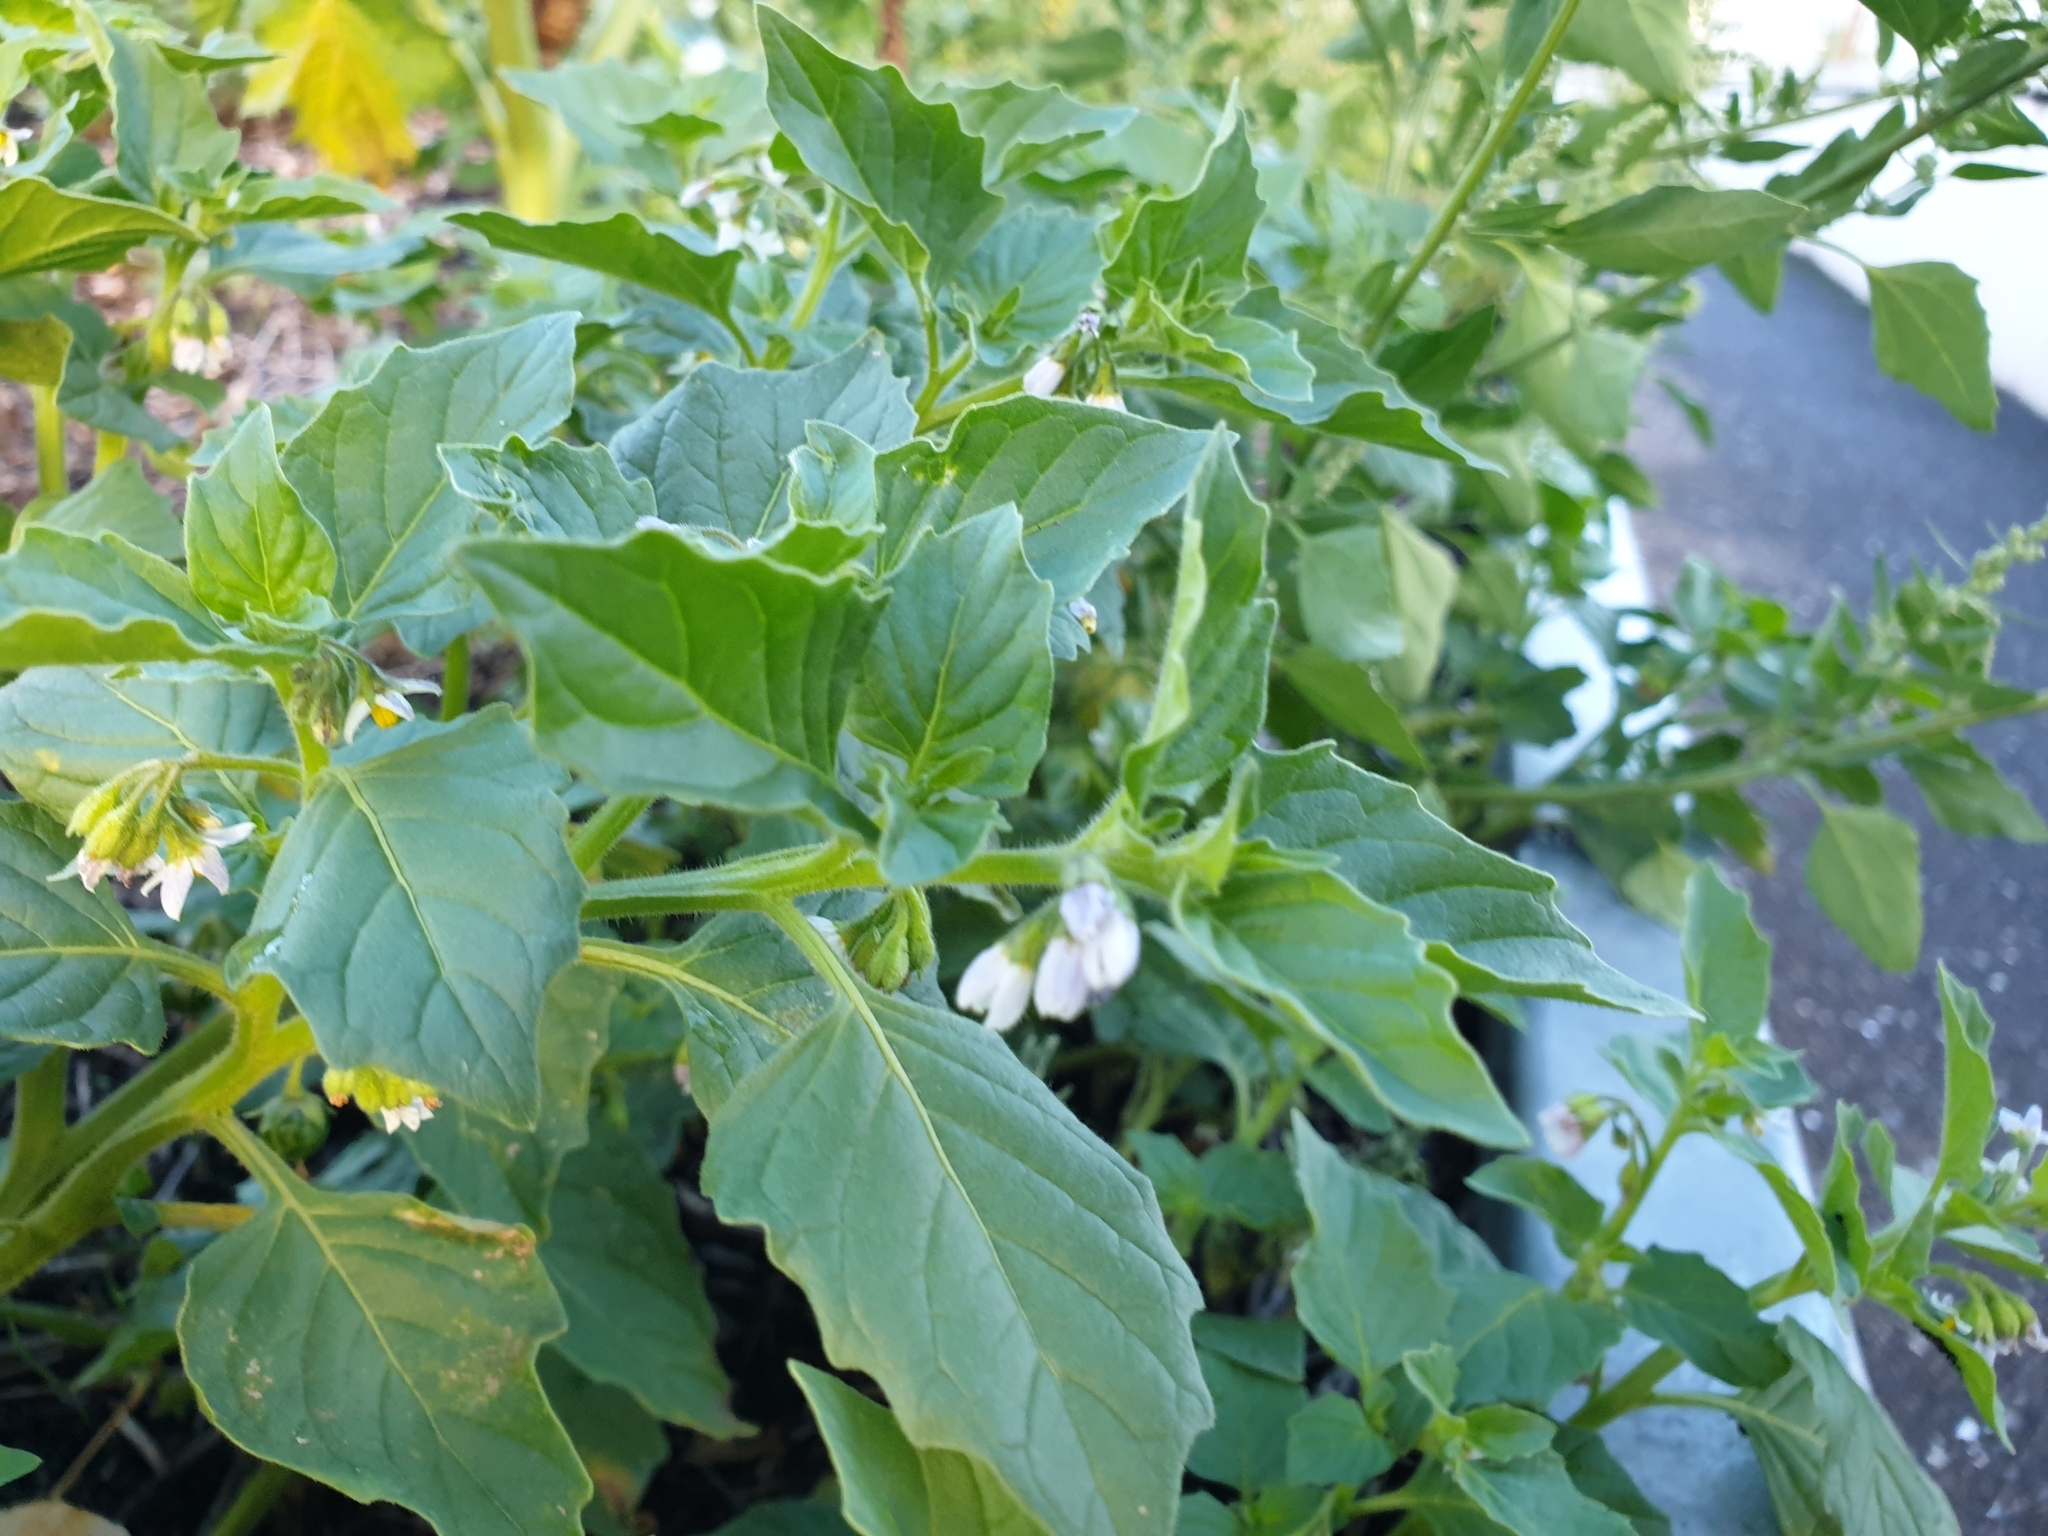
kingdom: Plantae
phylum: Tracheophyta
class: Magnoliopsida
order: Solanales
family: Solanaceae
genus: Solanum
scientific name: Solanum nitidibaccatum
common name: Hairy nightshade
